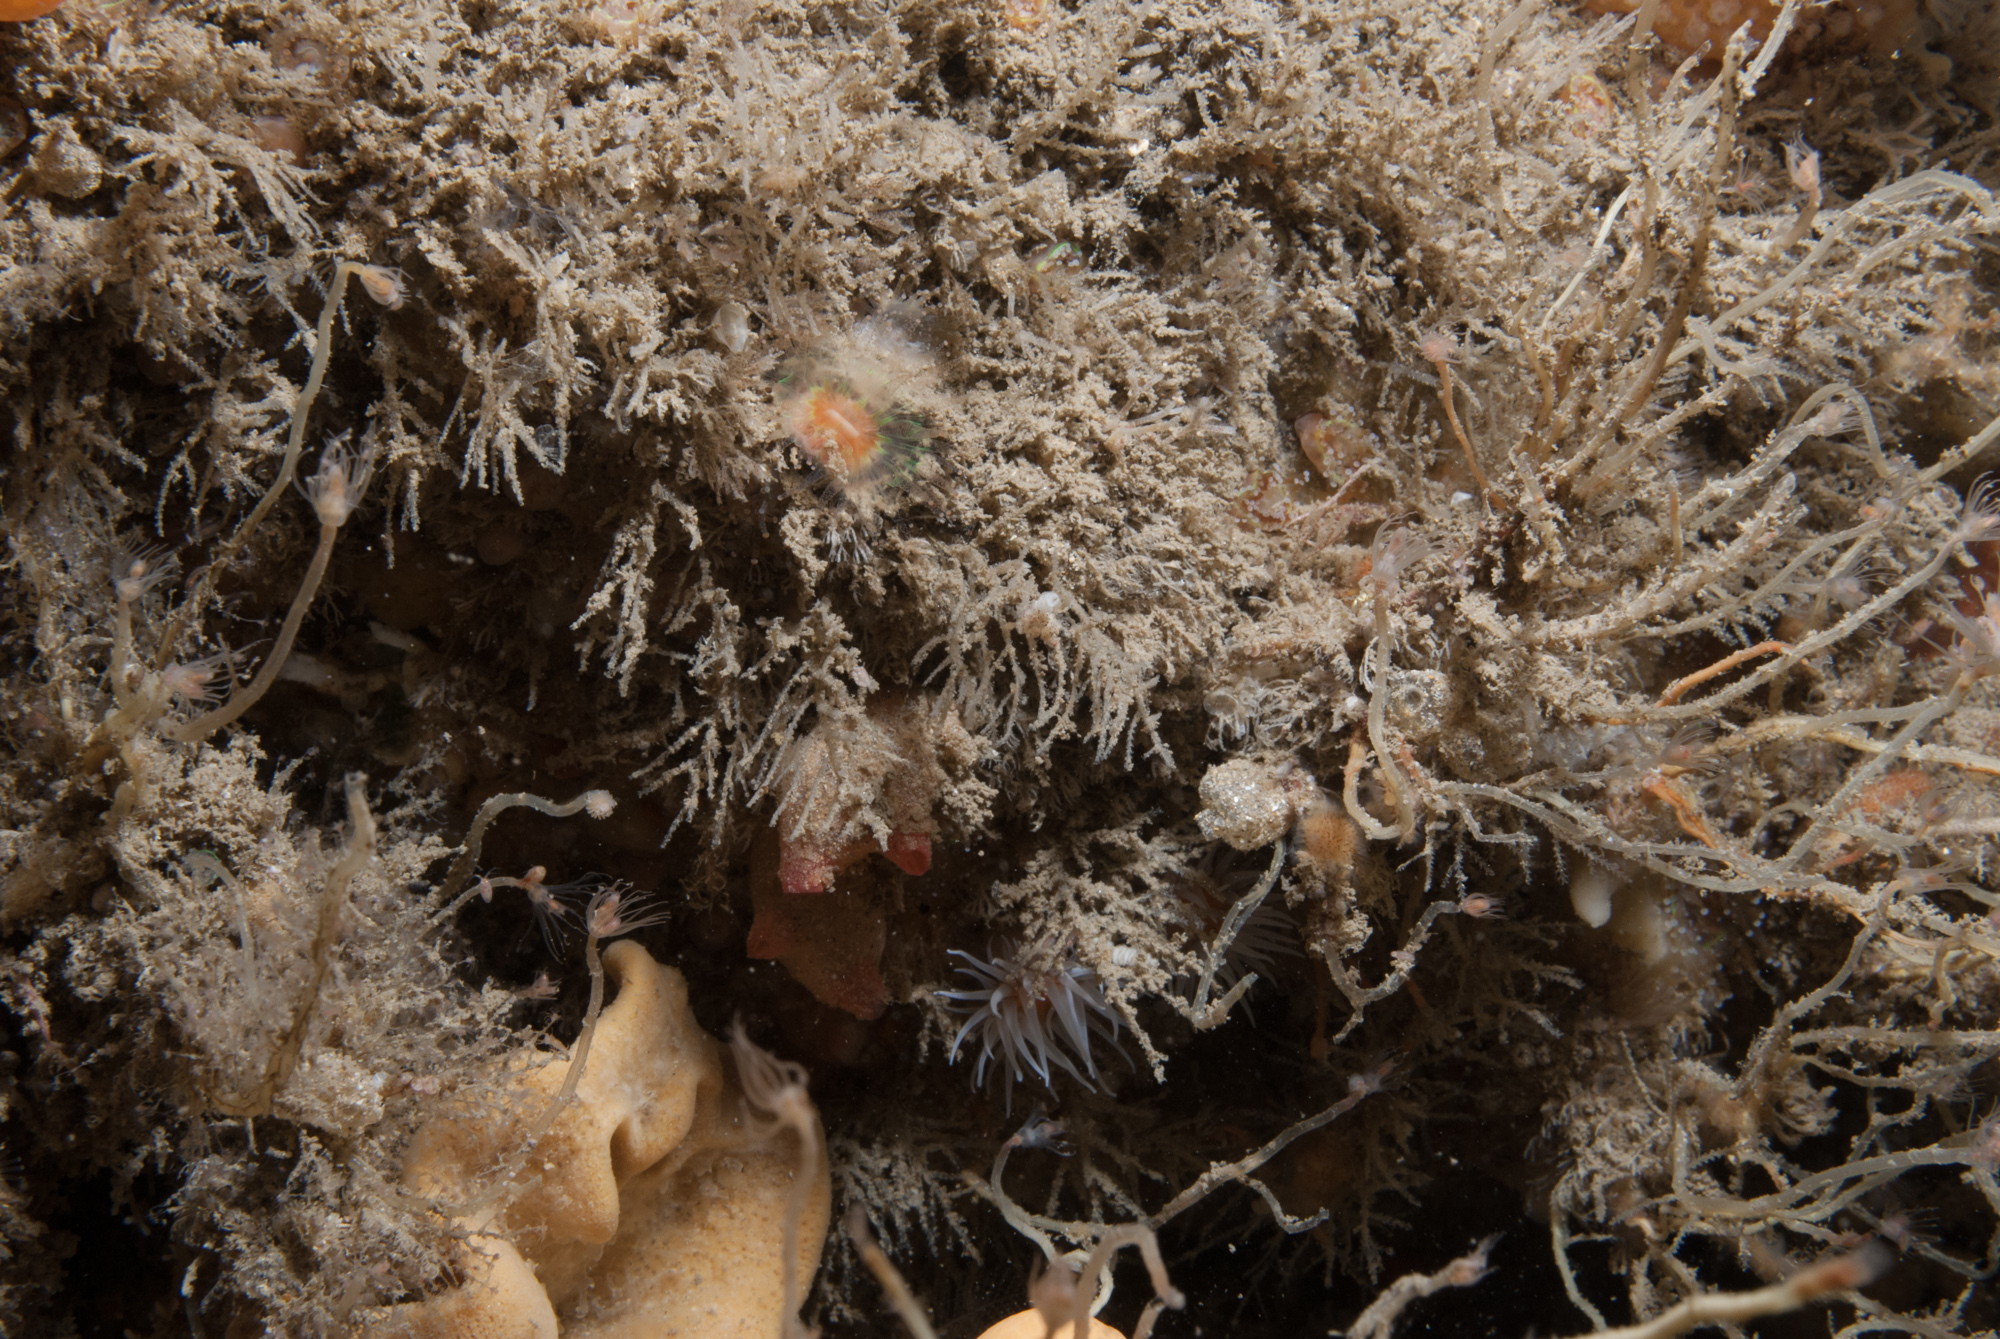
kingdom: Animalia
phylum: Cnidaria
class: Hydrozoa
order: Leptothecata
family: Sertulariidae
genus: Diphasia
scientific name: Diphasia rosacea
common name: Lily hydroid
